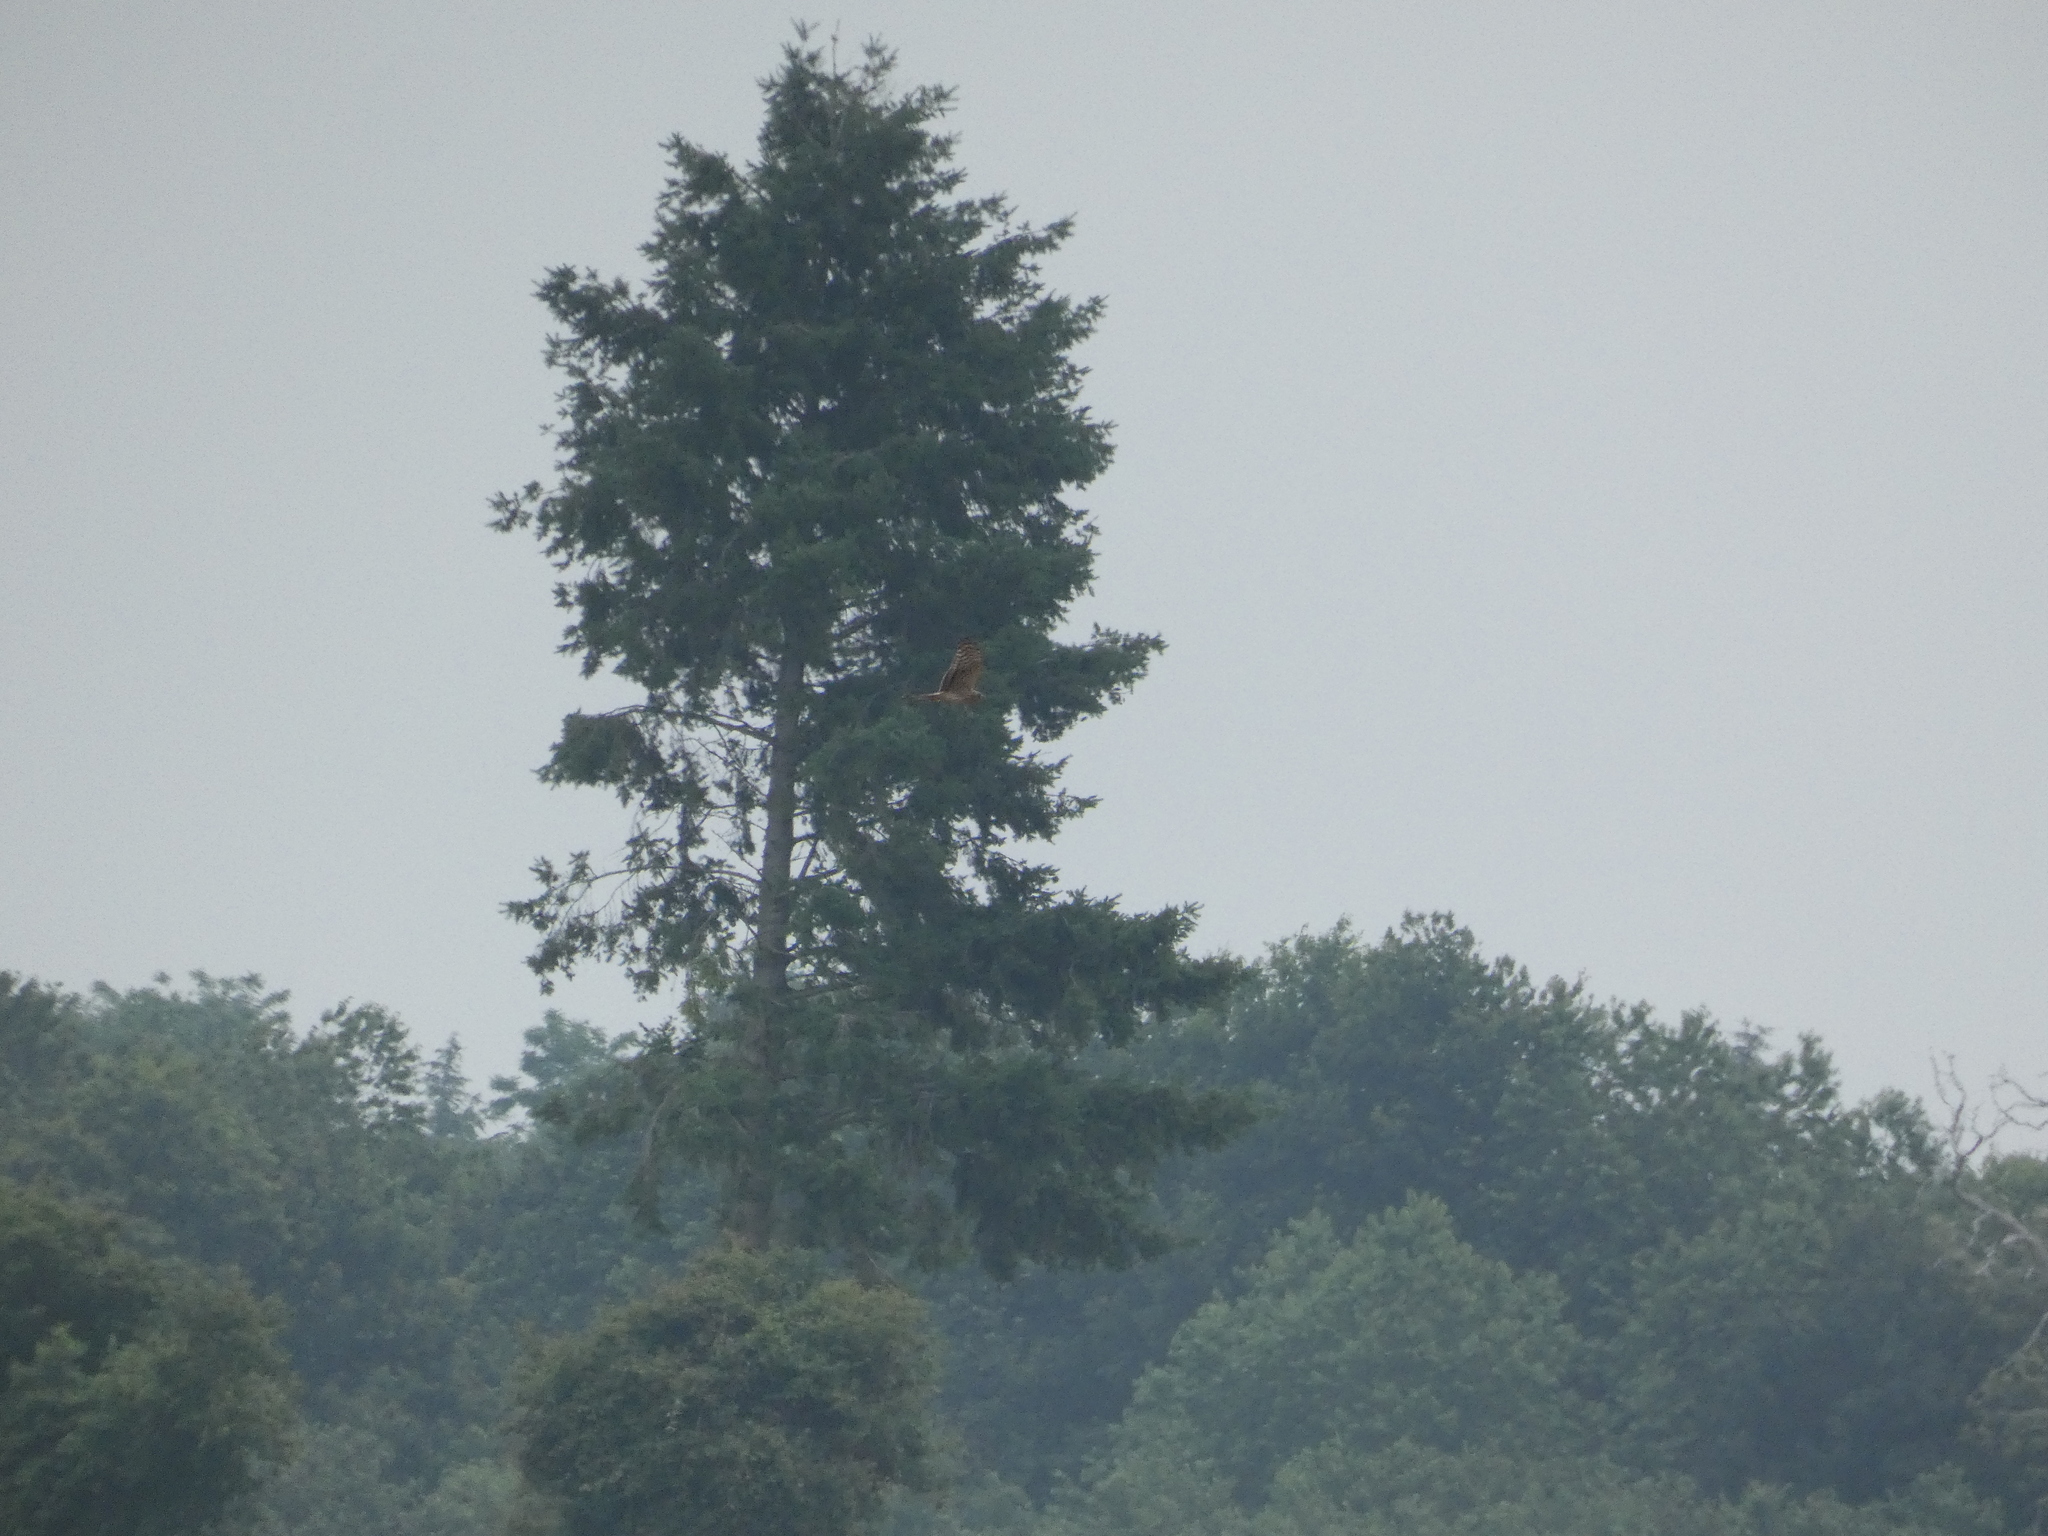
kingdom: Animalia
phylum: Chordata
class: Aves
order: Accipitriformes
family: Accipitridae
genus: Circus
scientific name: Circus cyaneus
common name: Hen harrier
